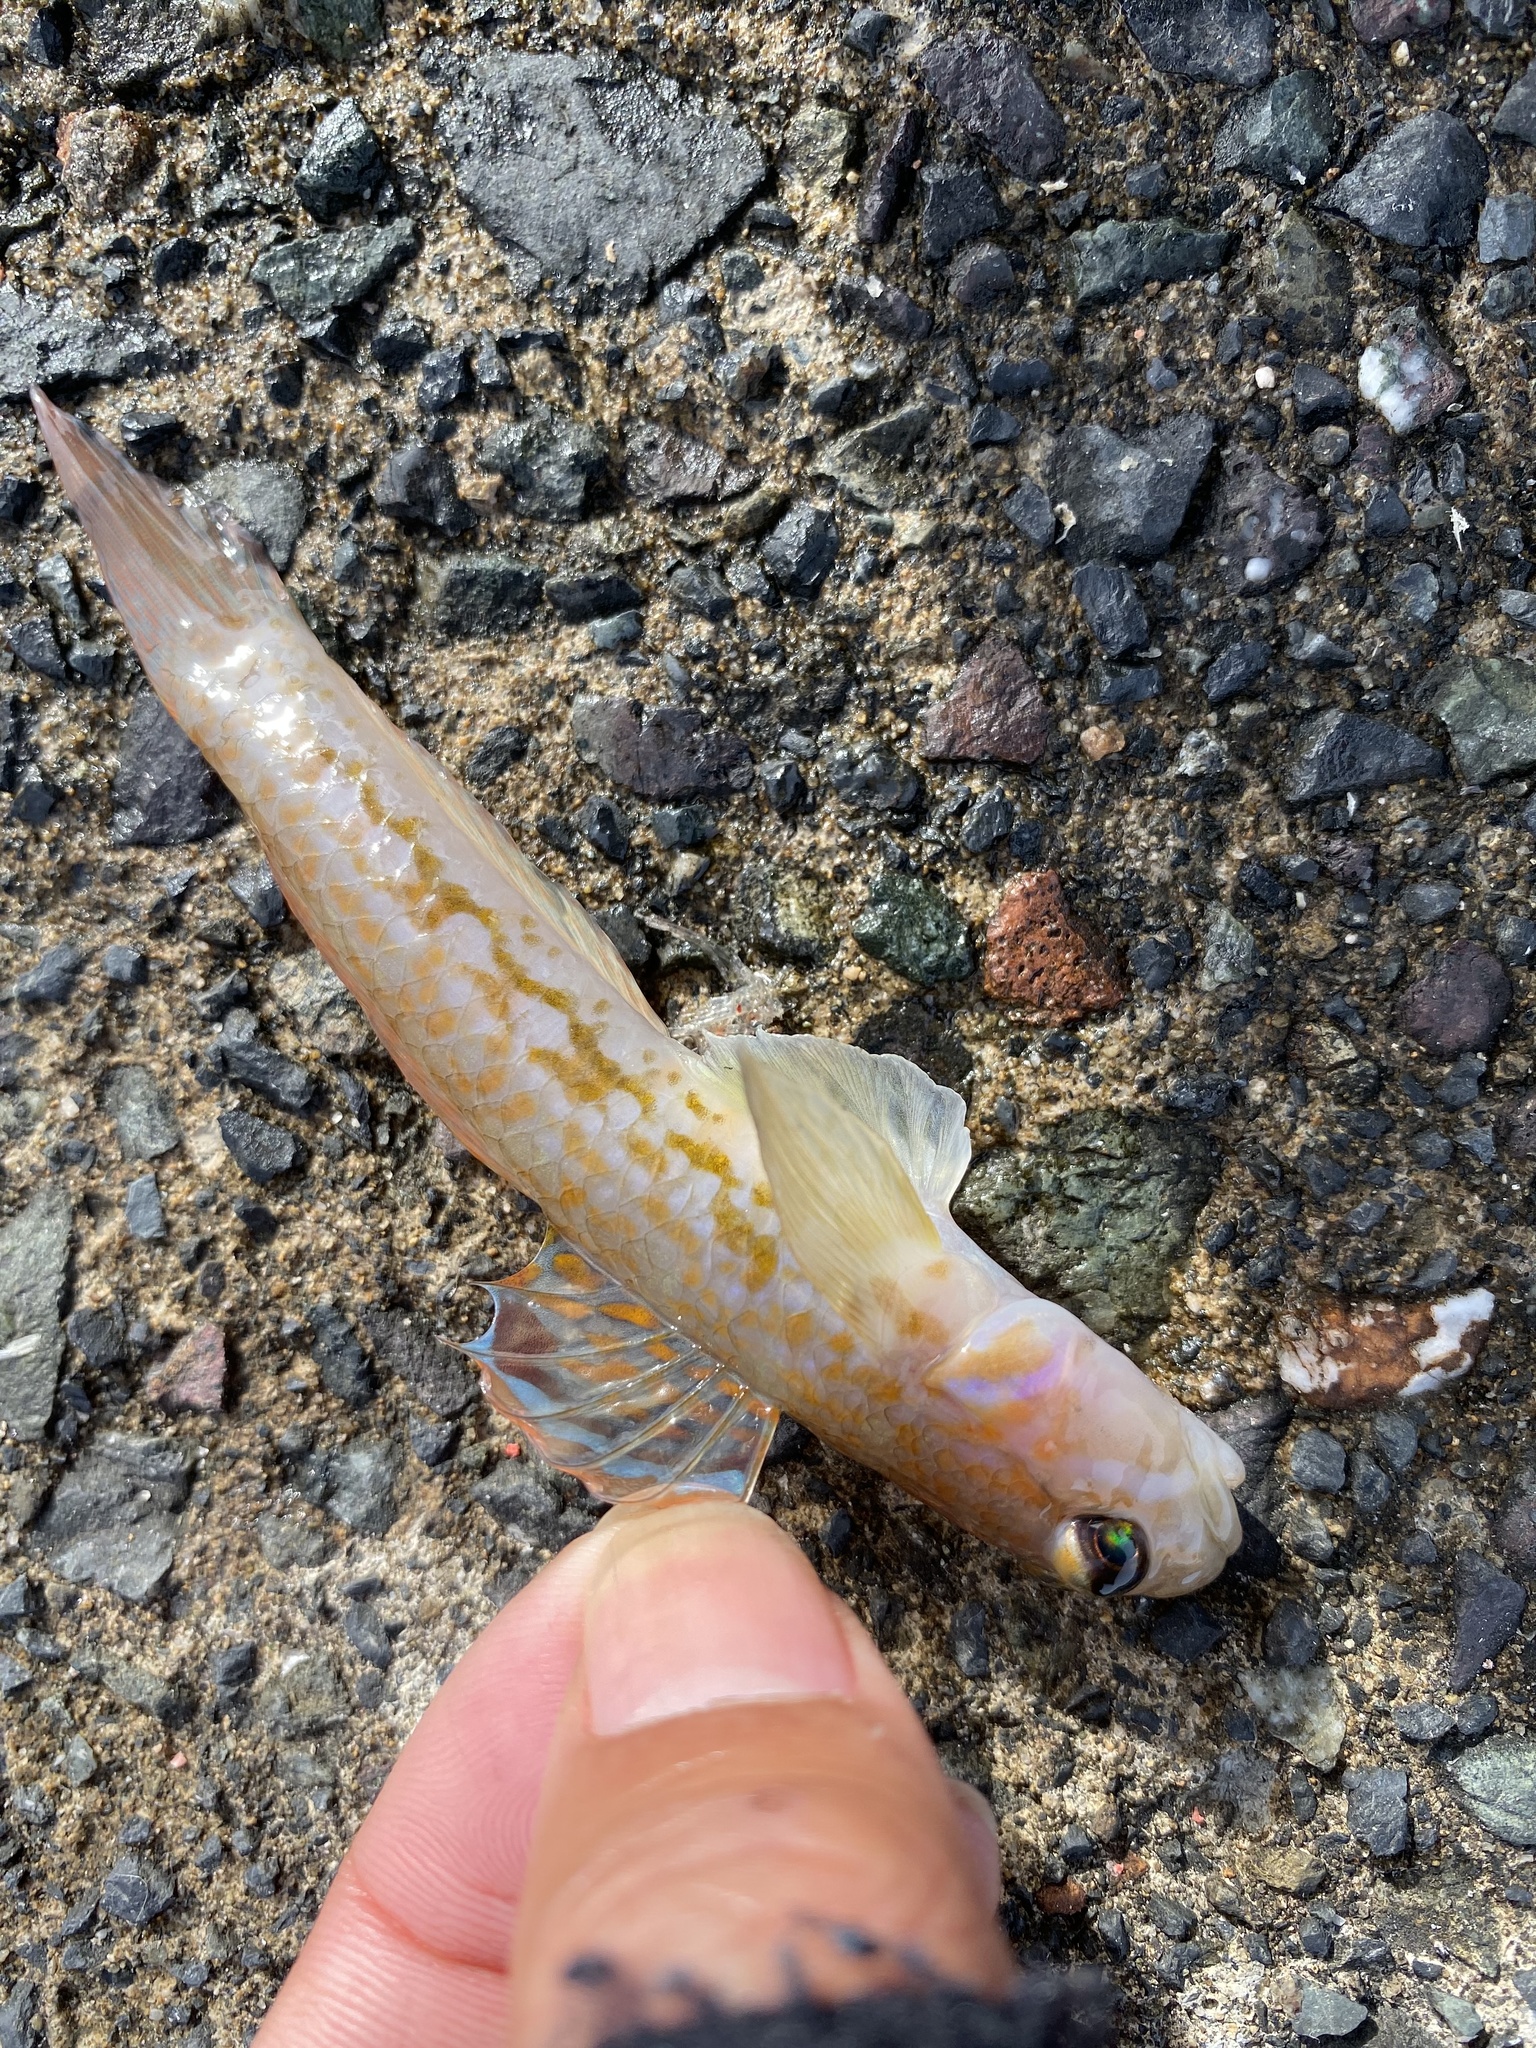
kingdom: Animalia
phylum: Chordata
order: Perciformes
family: Gobiidae
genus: Istigobius
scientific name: Istigobius hoshinonis
